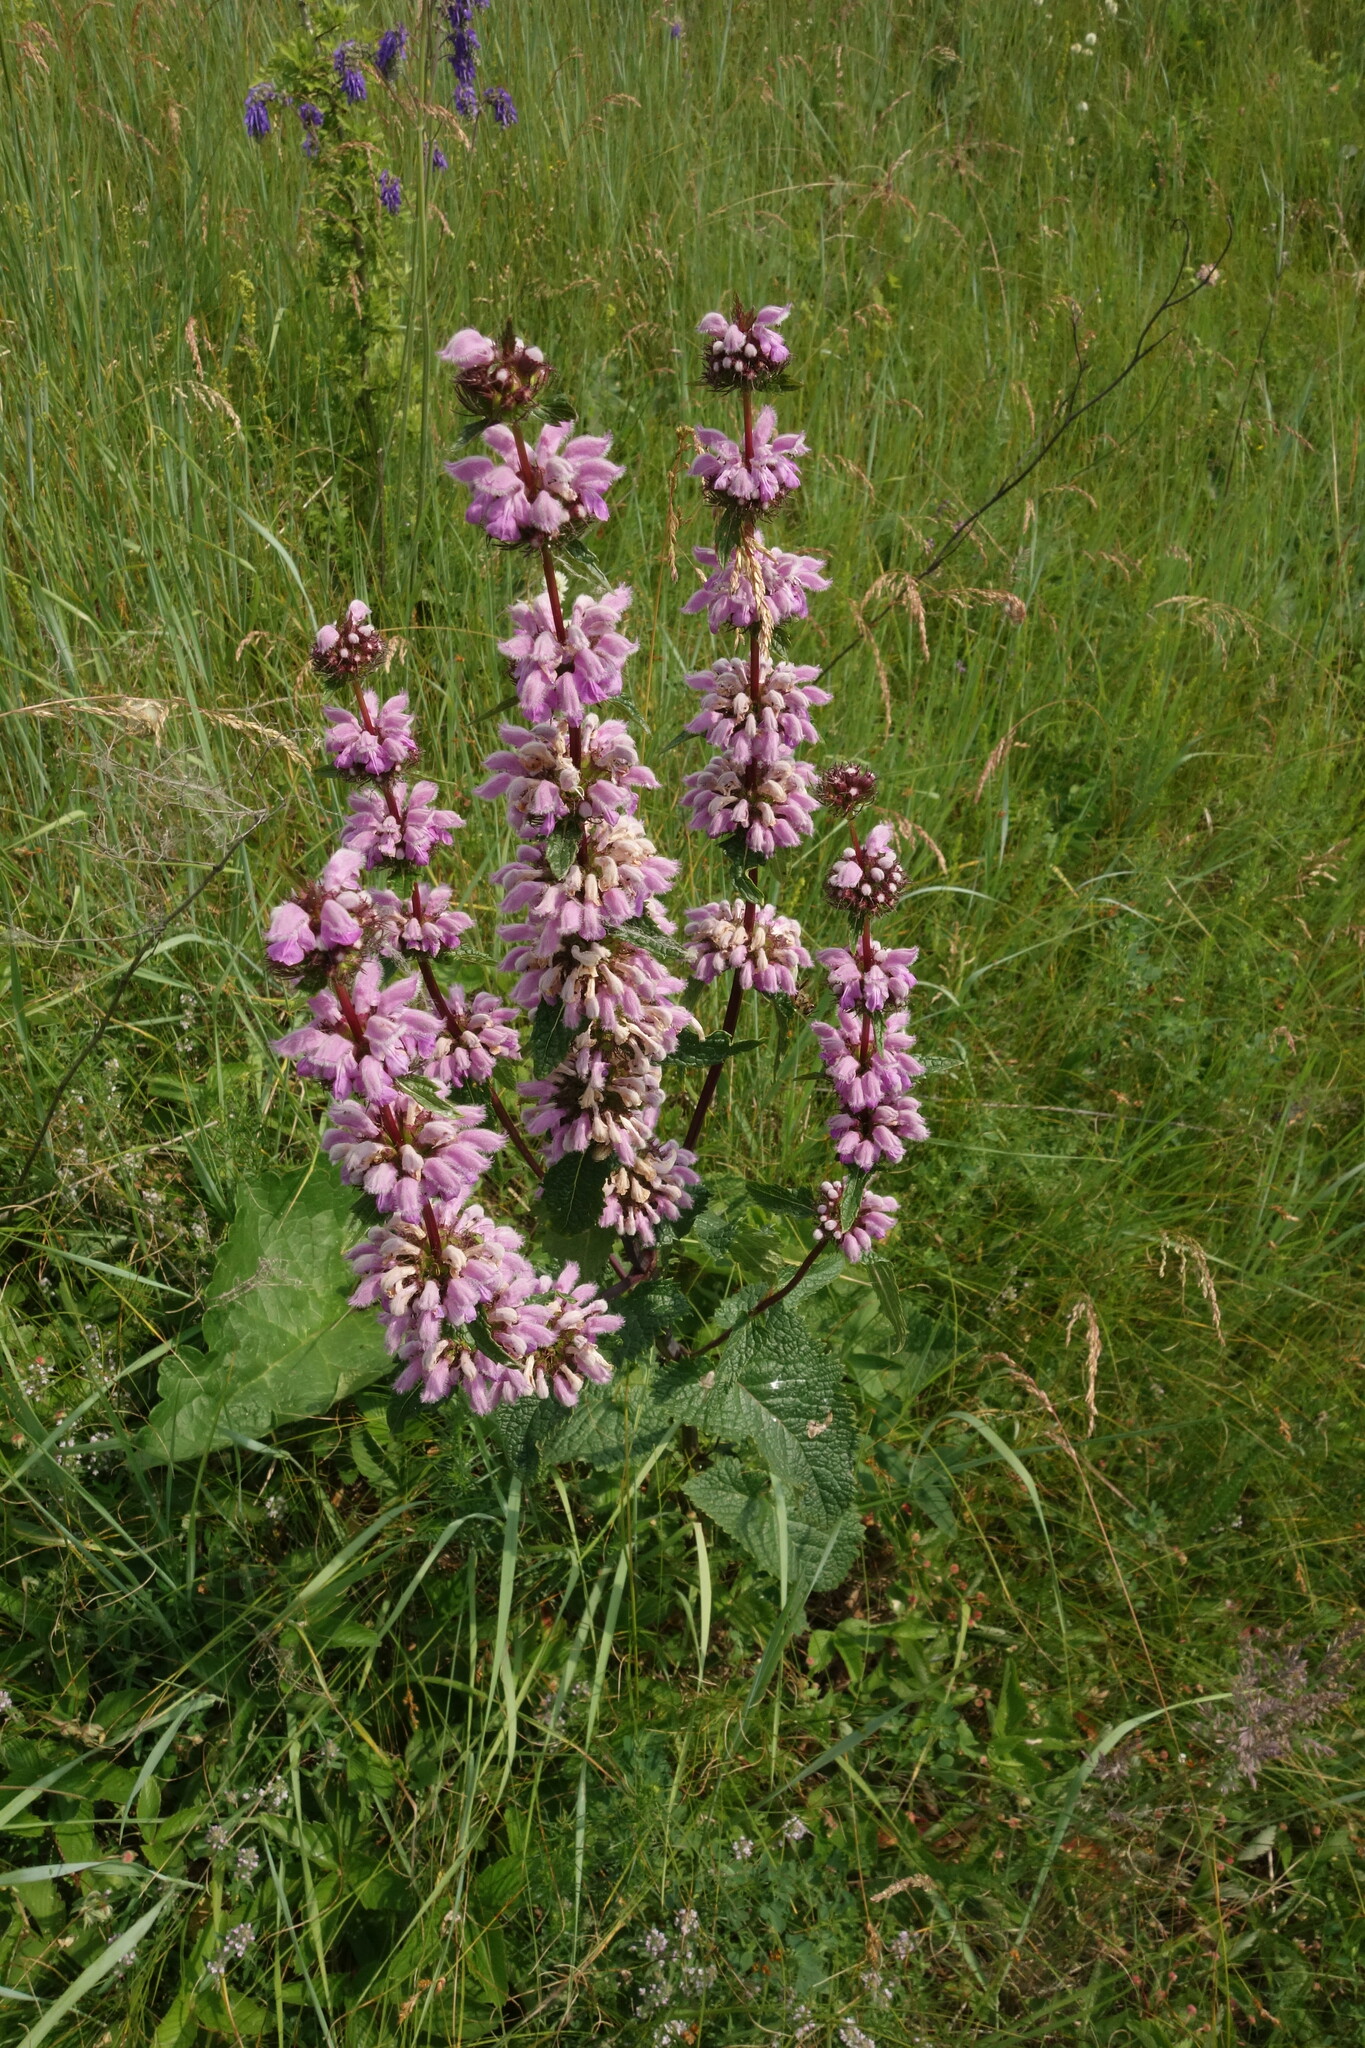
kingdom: Plantae
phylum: Tracheophyta
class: Magnoliopsida
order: Lamiales
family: Lamiaceae
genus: Phlomoides
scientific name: Phlomoides tuberosa
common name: Tuberous jerusalem sage
